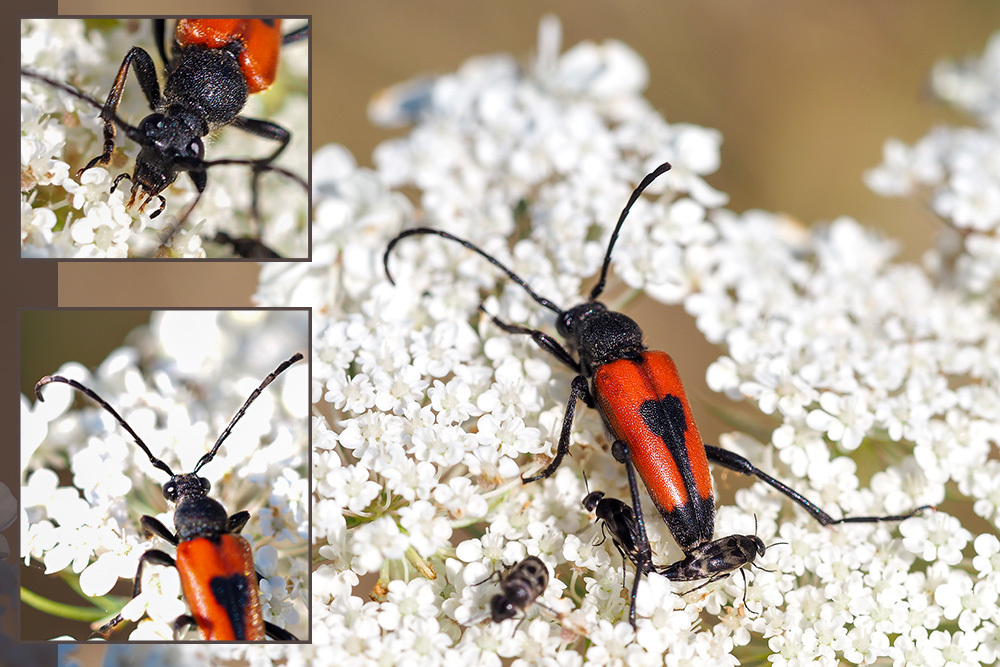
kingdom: Animalia
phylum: Arthropoda
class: Insecta
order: Coleoptera
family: Cerambycidae
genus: Stictoleptura
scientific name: Stictoleptura cordigera
